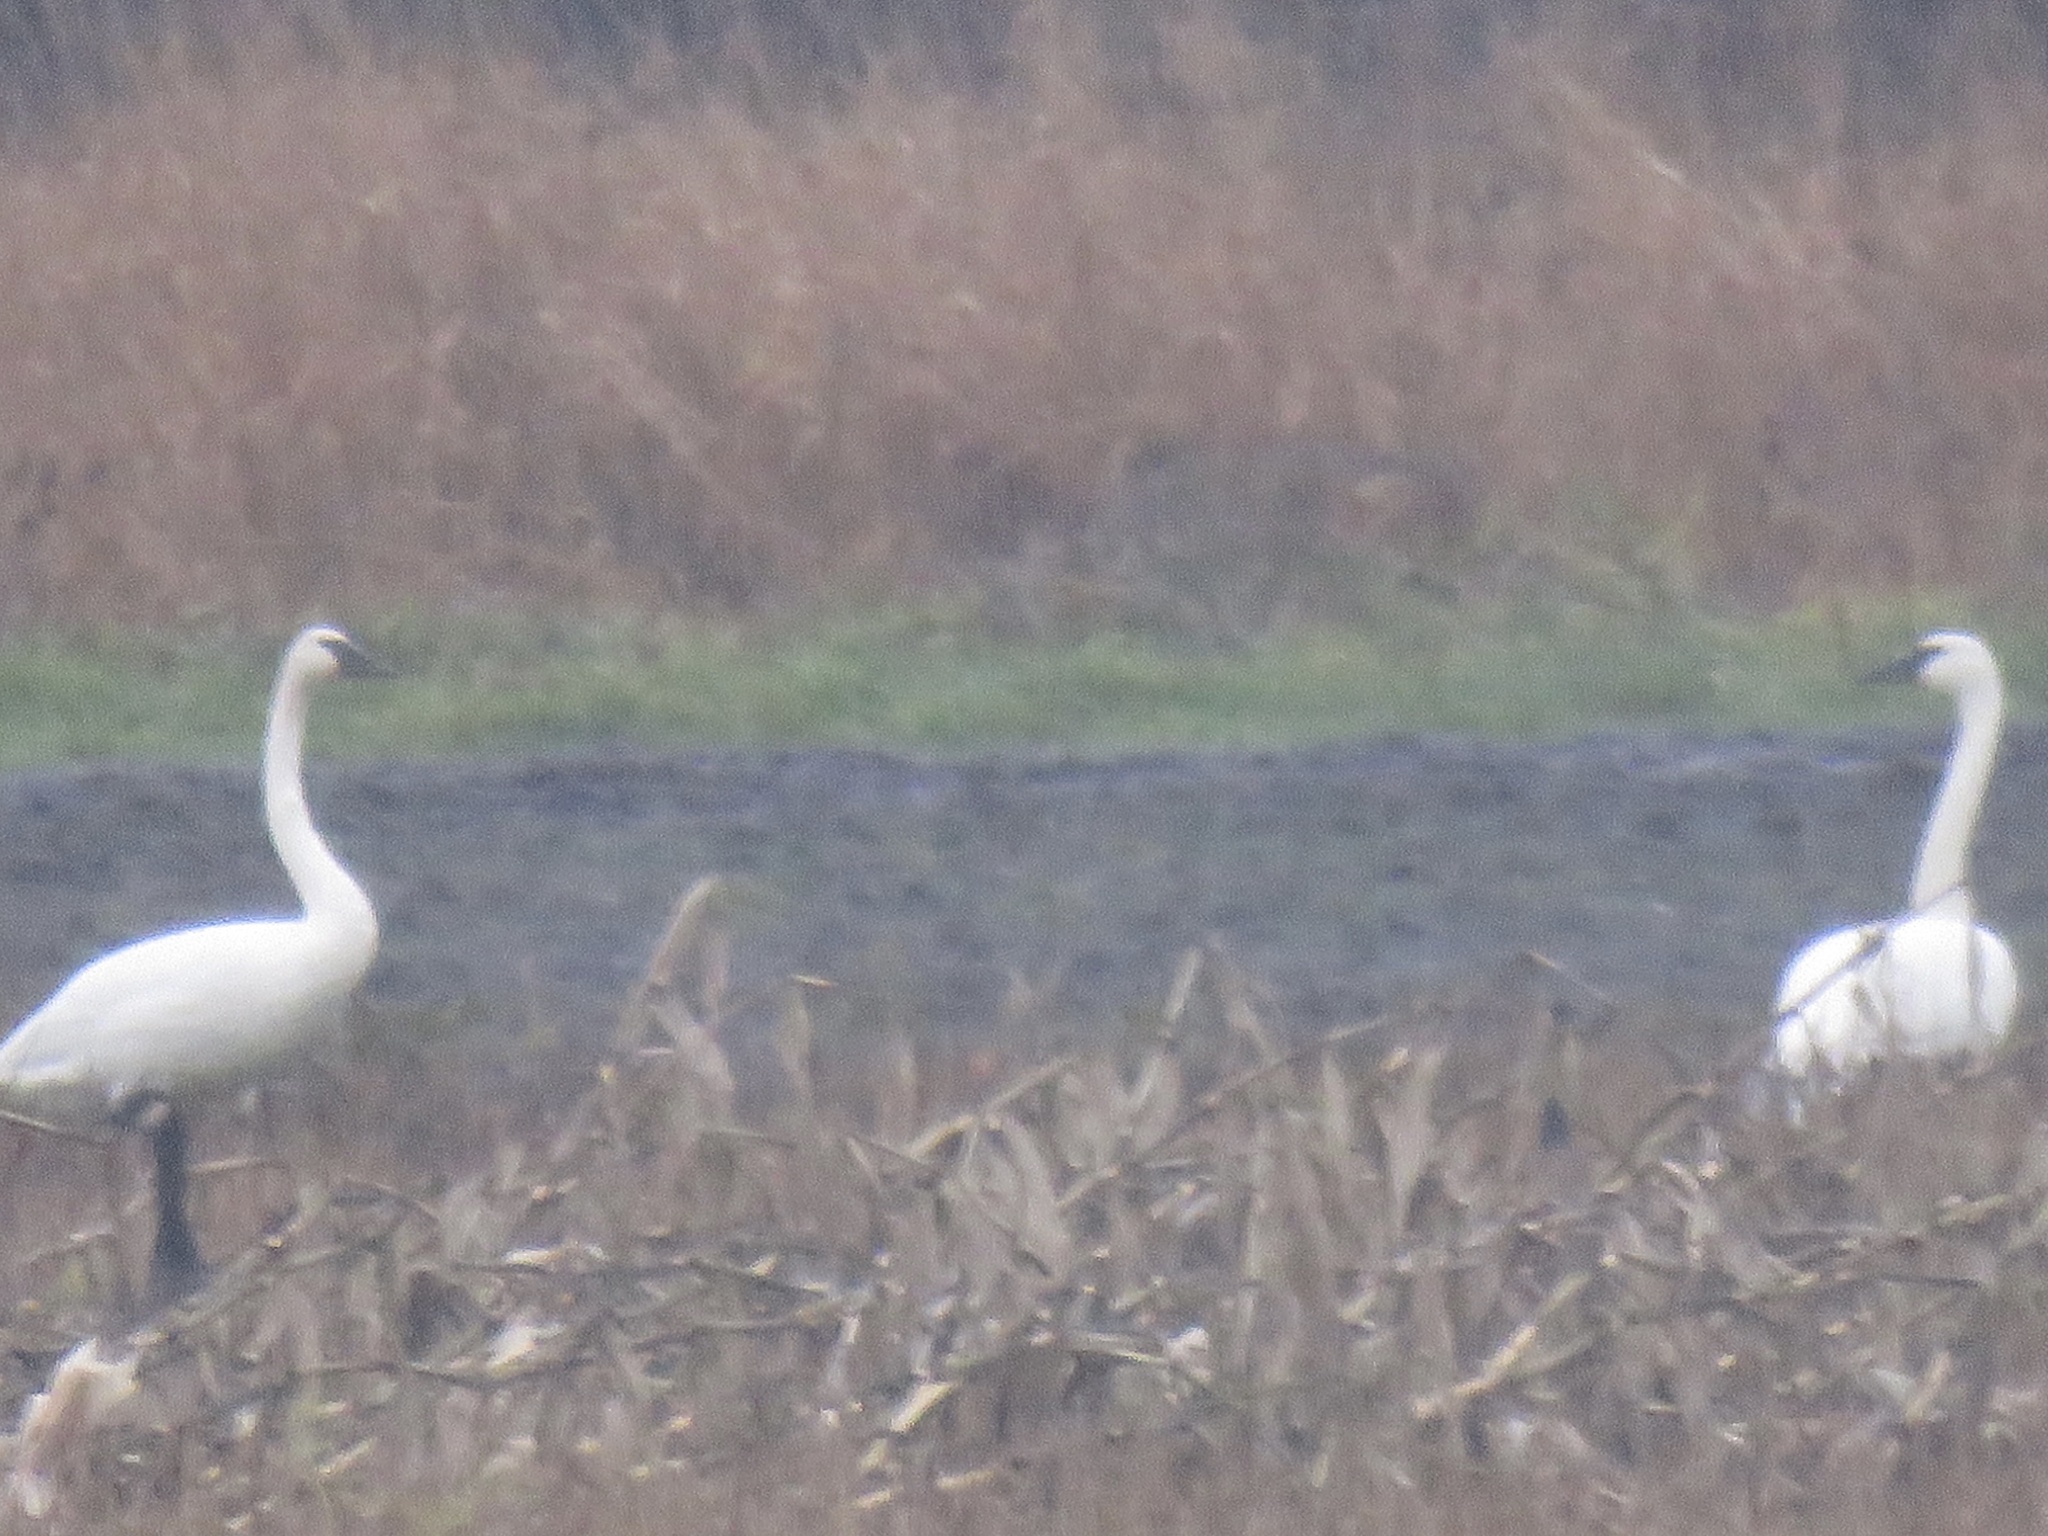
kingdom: Animalia
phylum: Chordata
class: Aves
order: Anseriformes
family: Anatidae
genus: Cygnus
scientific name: Cygnus buccinator
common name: Trumpeter swan
